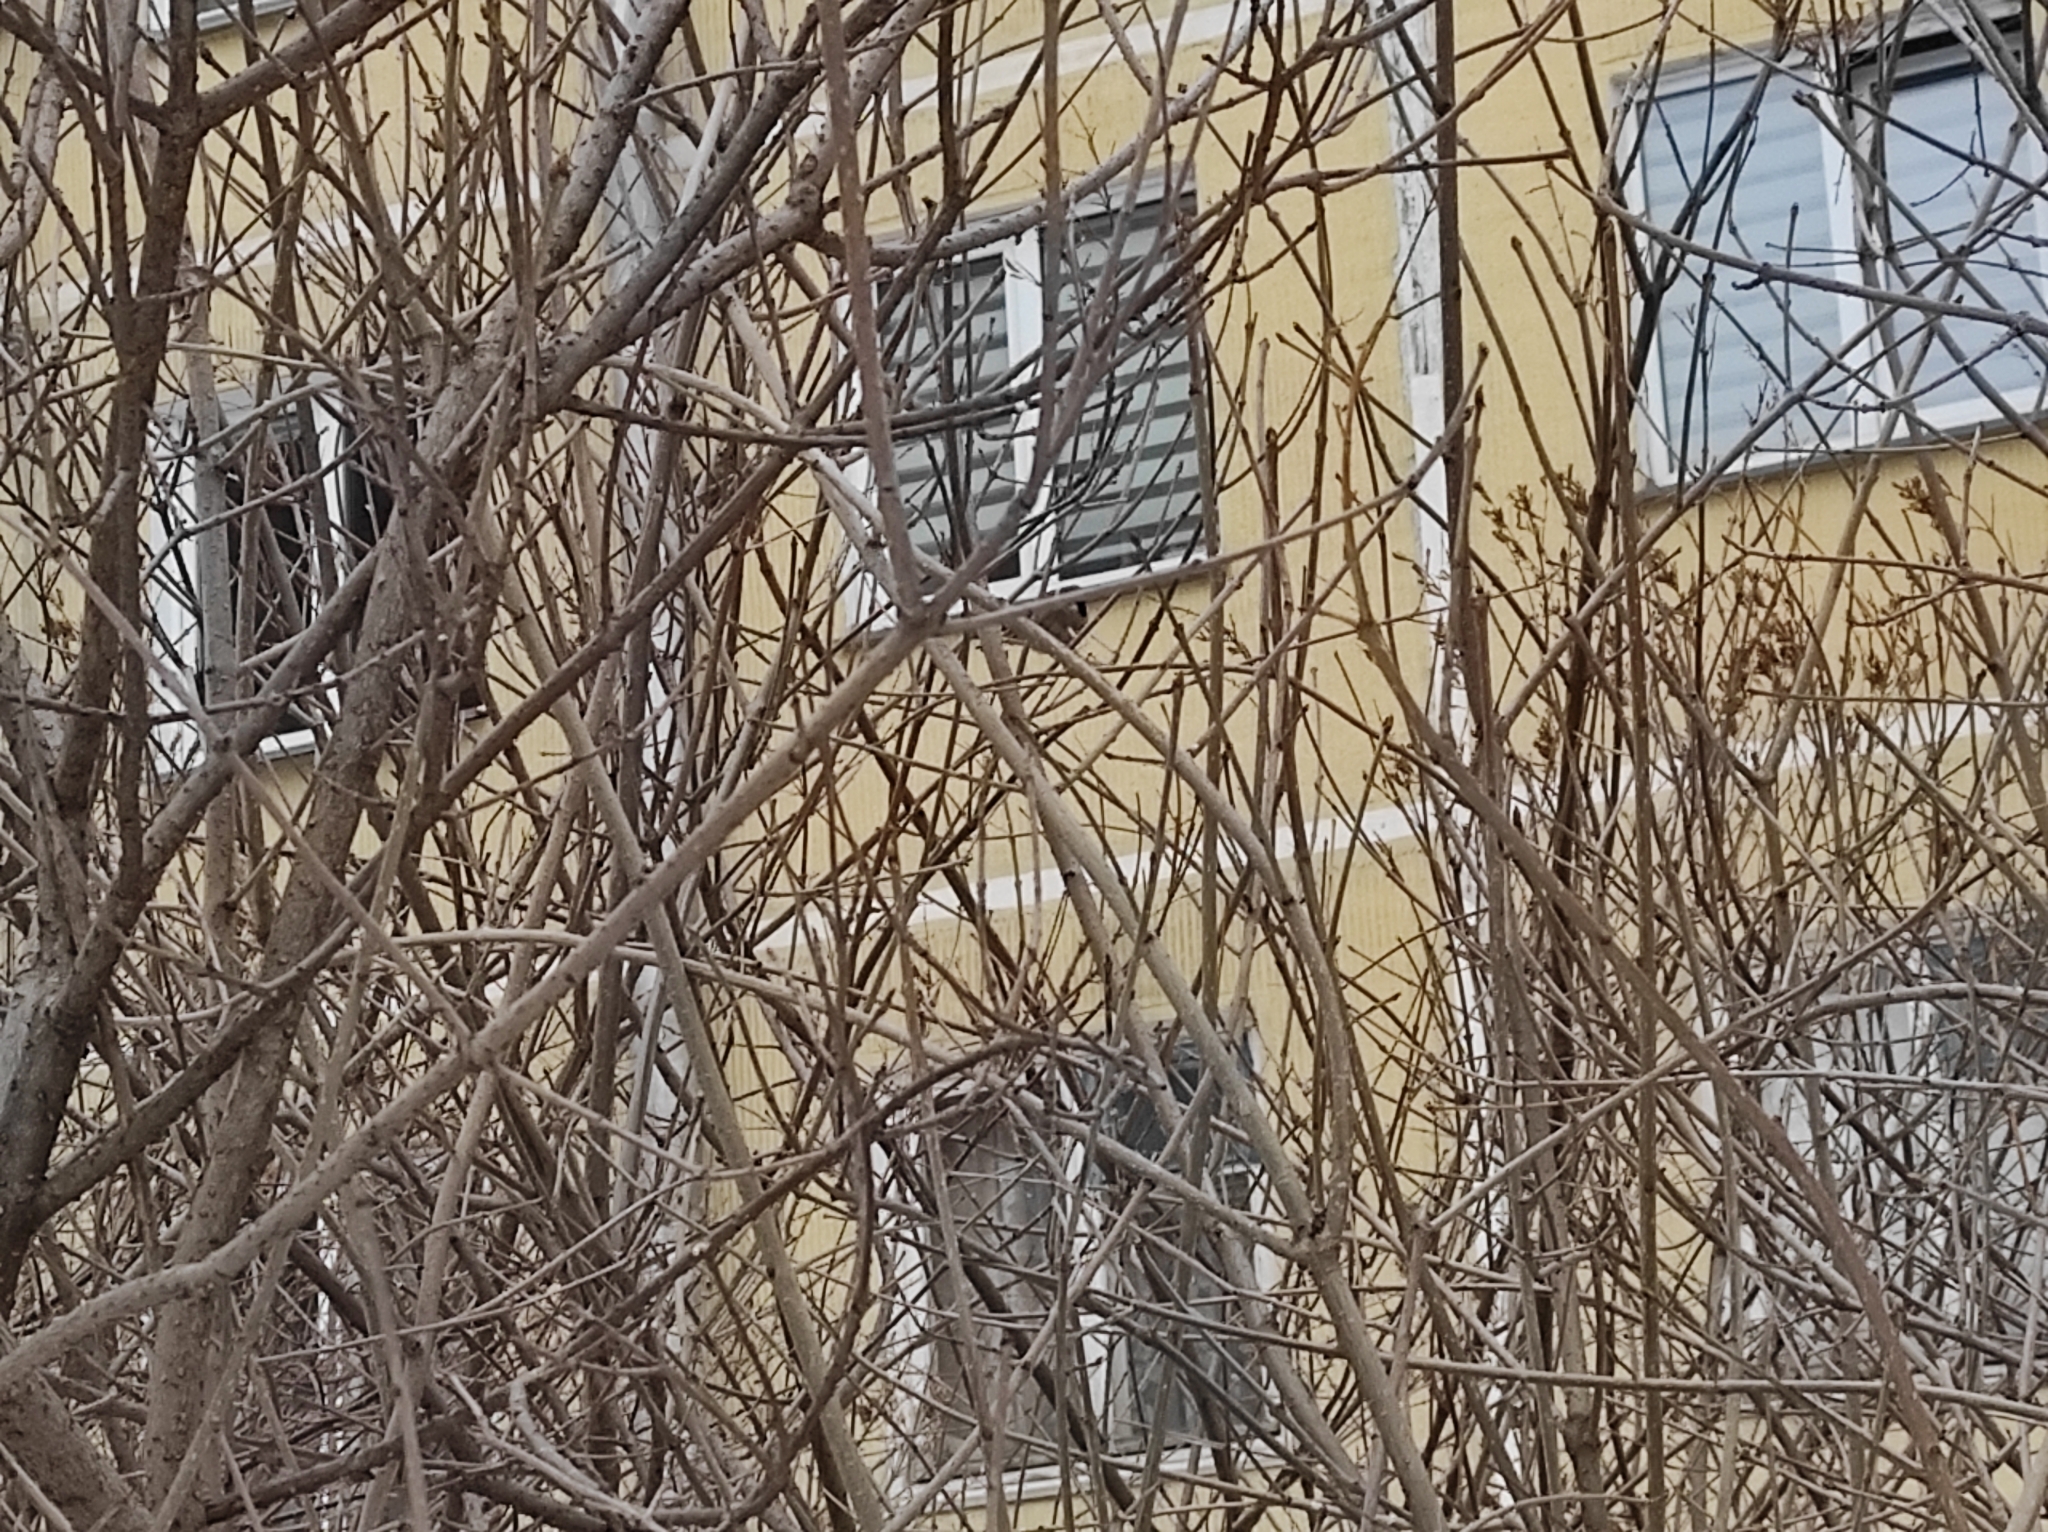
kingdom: Animalia
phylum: Chordata
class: Aves
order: Passeriformes
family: Passeridae
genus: Passer
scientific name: Passer montanus
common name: Eurasian tree sparrow
